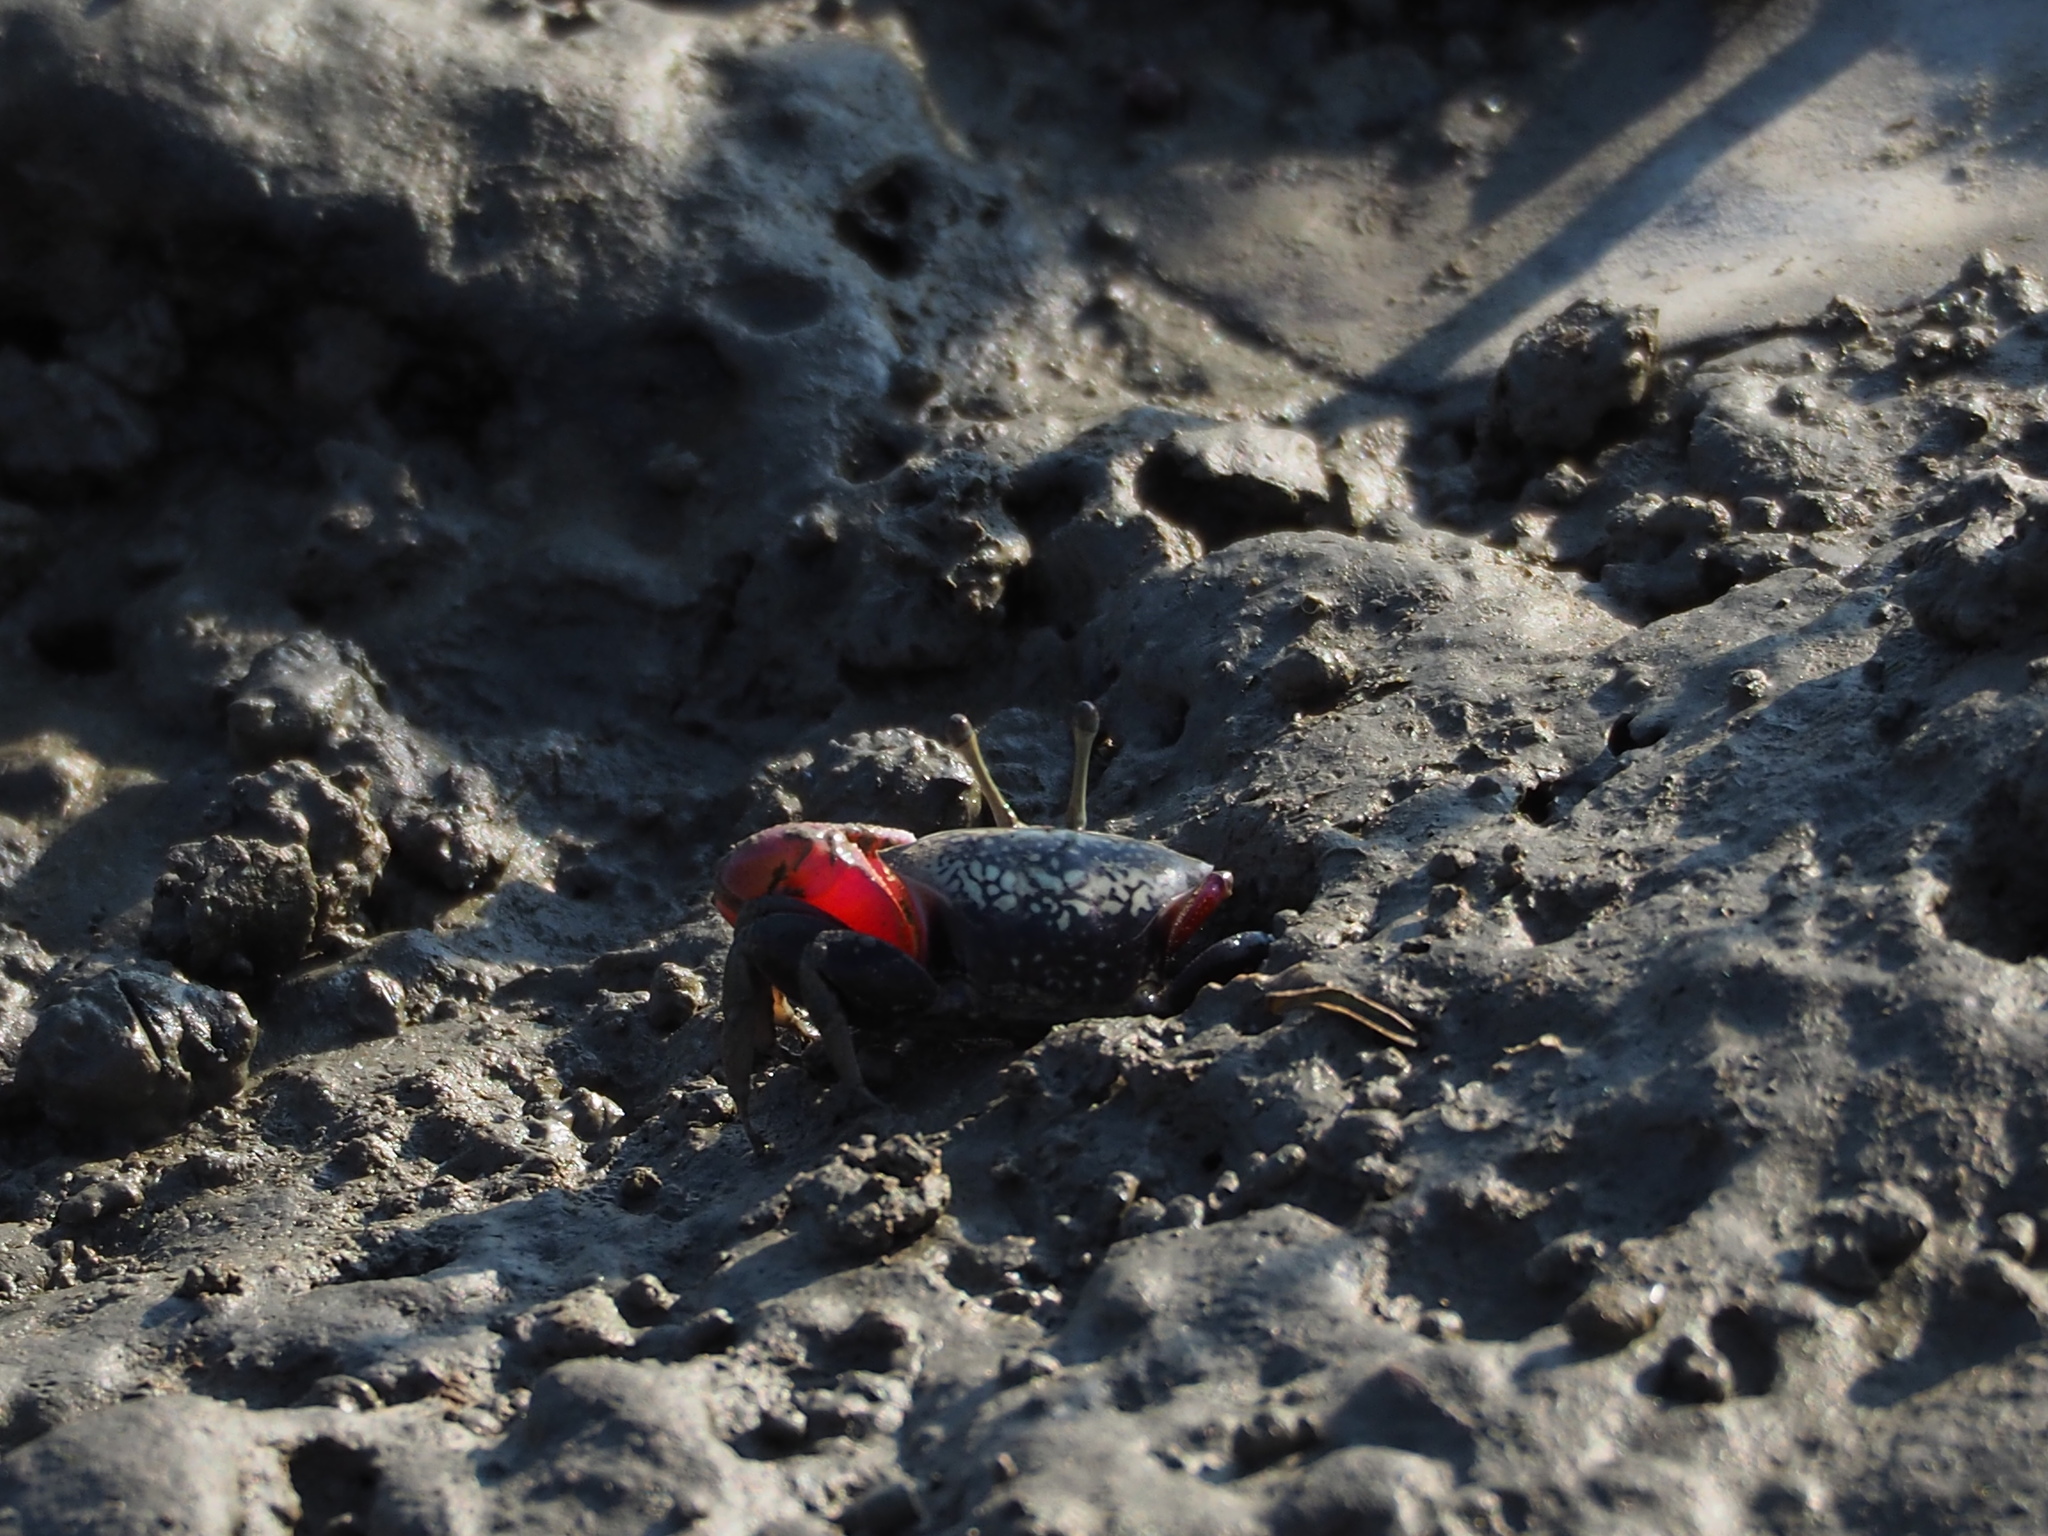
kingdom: Animalia
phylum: Arthropoda
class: Malacostraca
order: Decapoda
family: Ocypodidae
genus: Tubuca
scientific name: Tubuca arcuata
